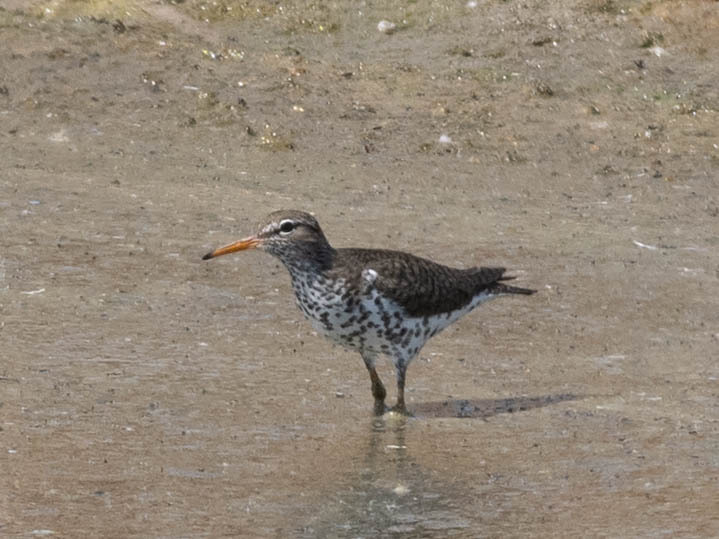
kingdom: Animalia
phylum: Chordata
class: Aves
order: Charadriiformes
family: Scolopacidae
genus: Actitis
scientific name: Actitis macularius
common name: Spotted sandpiper
